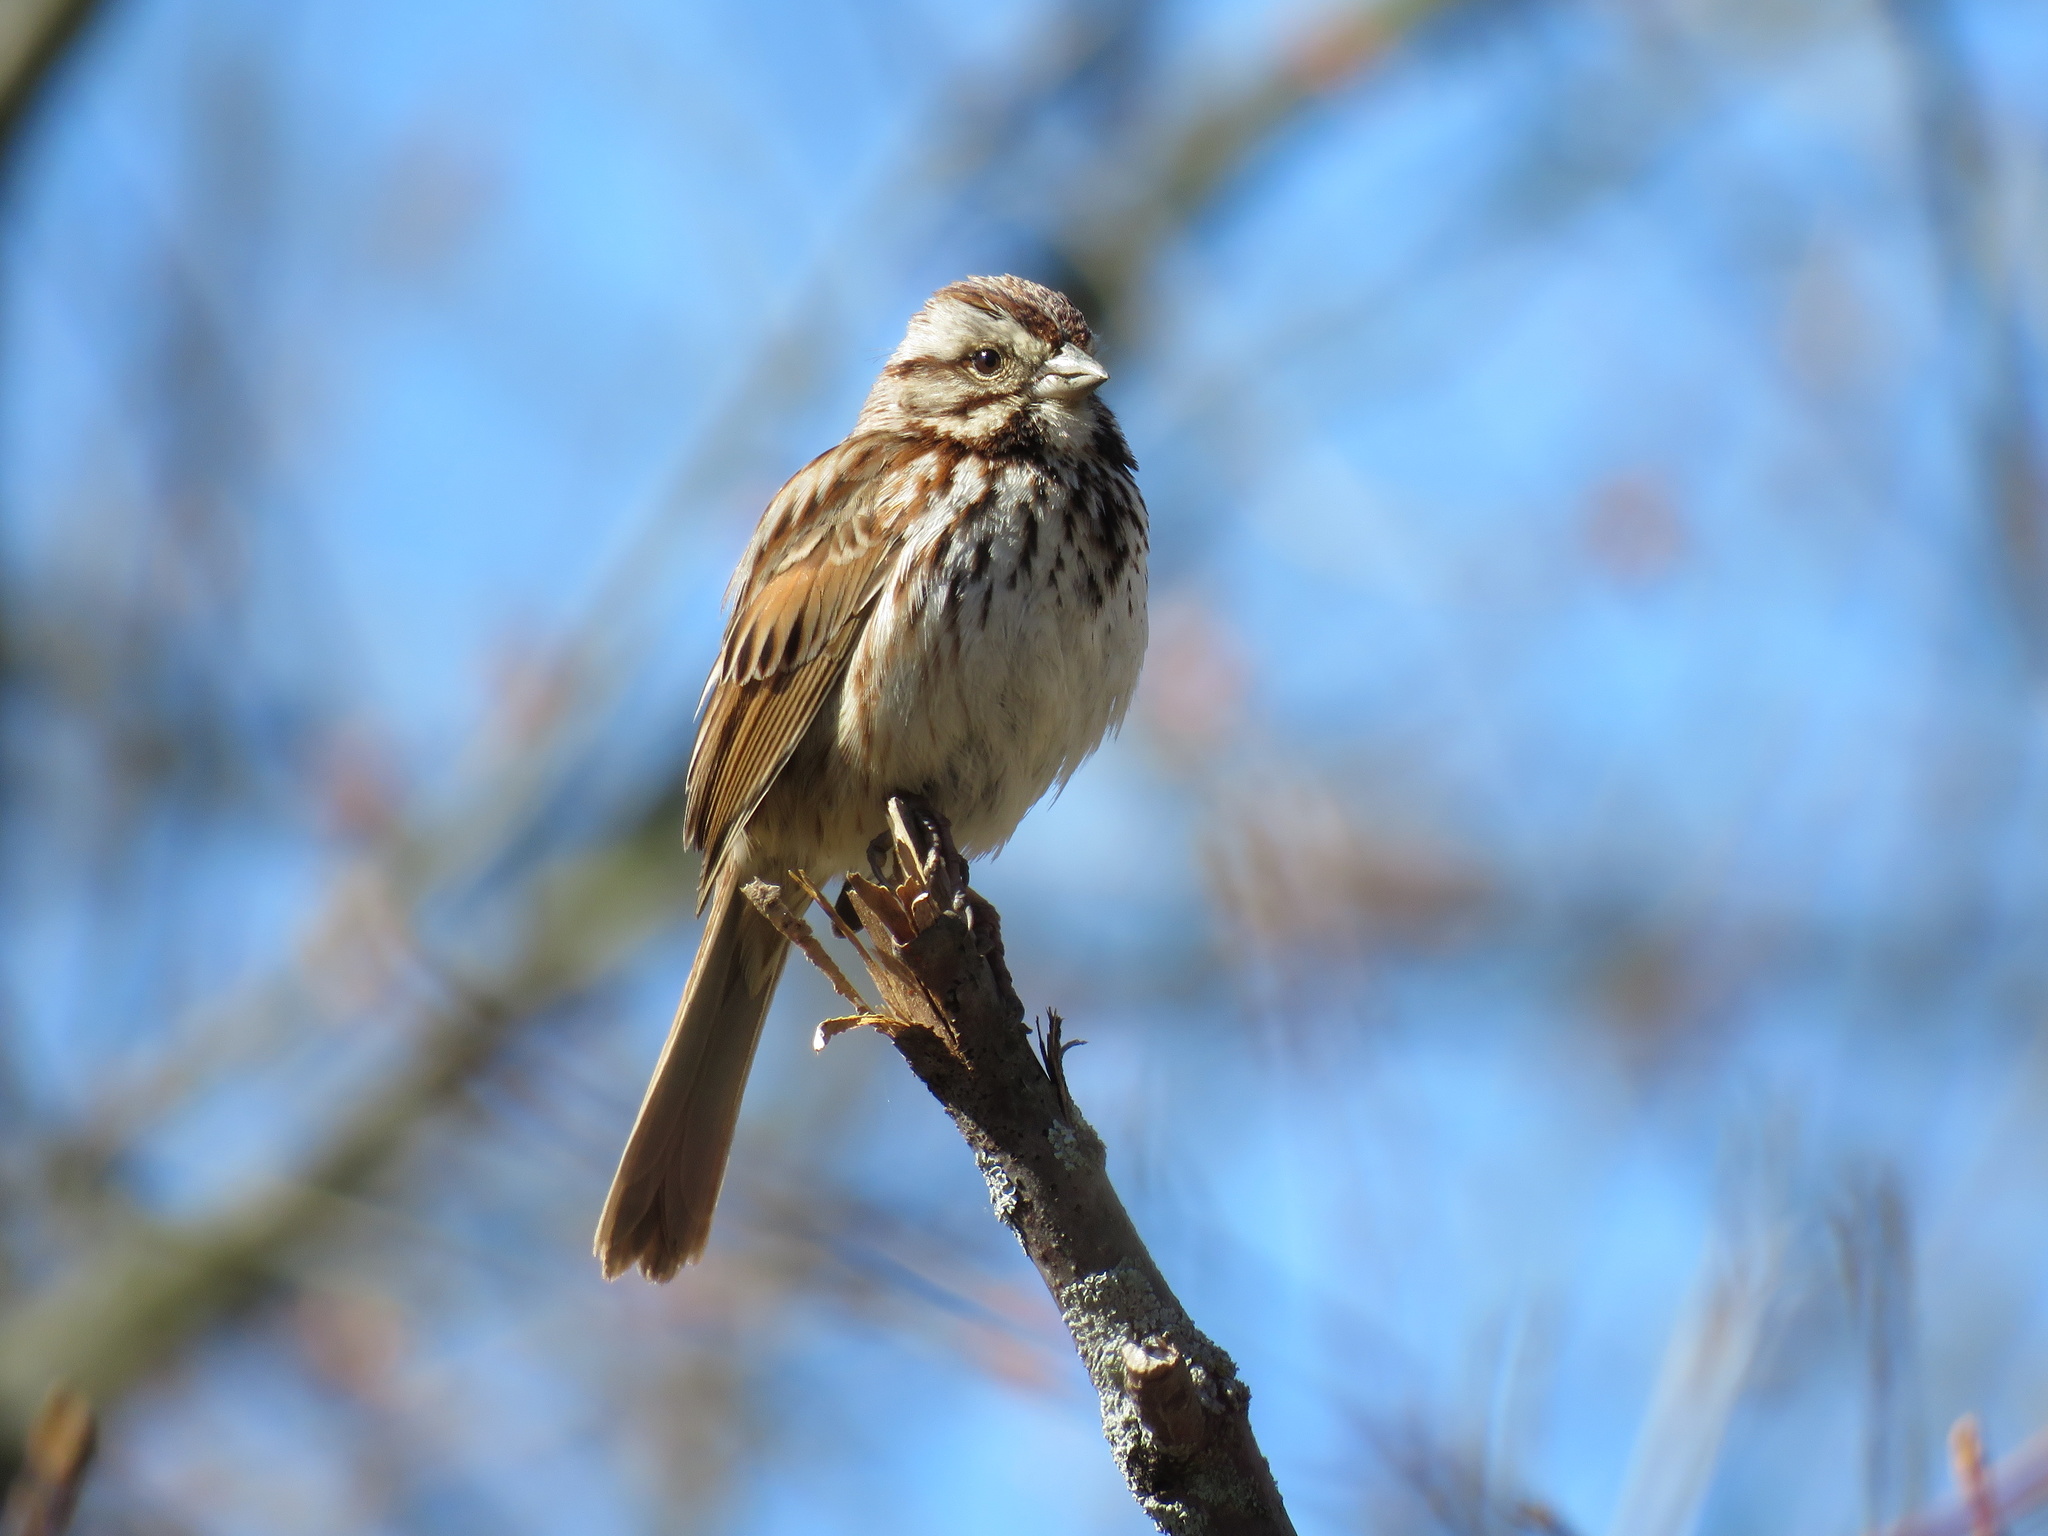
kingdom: Animalia
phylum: Chordata
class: Aves
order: Passeriformes
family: Passerellidae
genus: Melospiza
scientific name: Melospiza melodia
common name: Song sparrow
